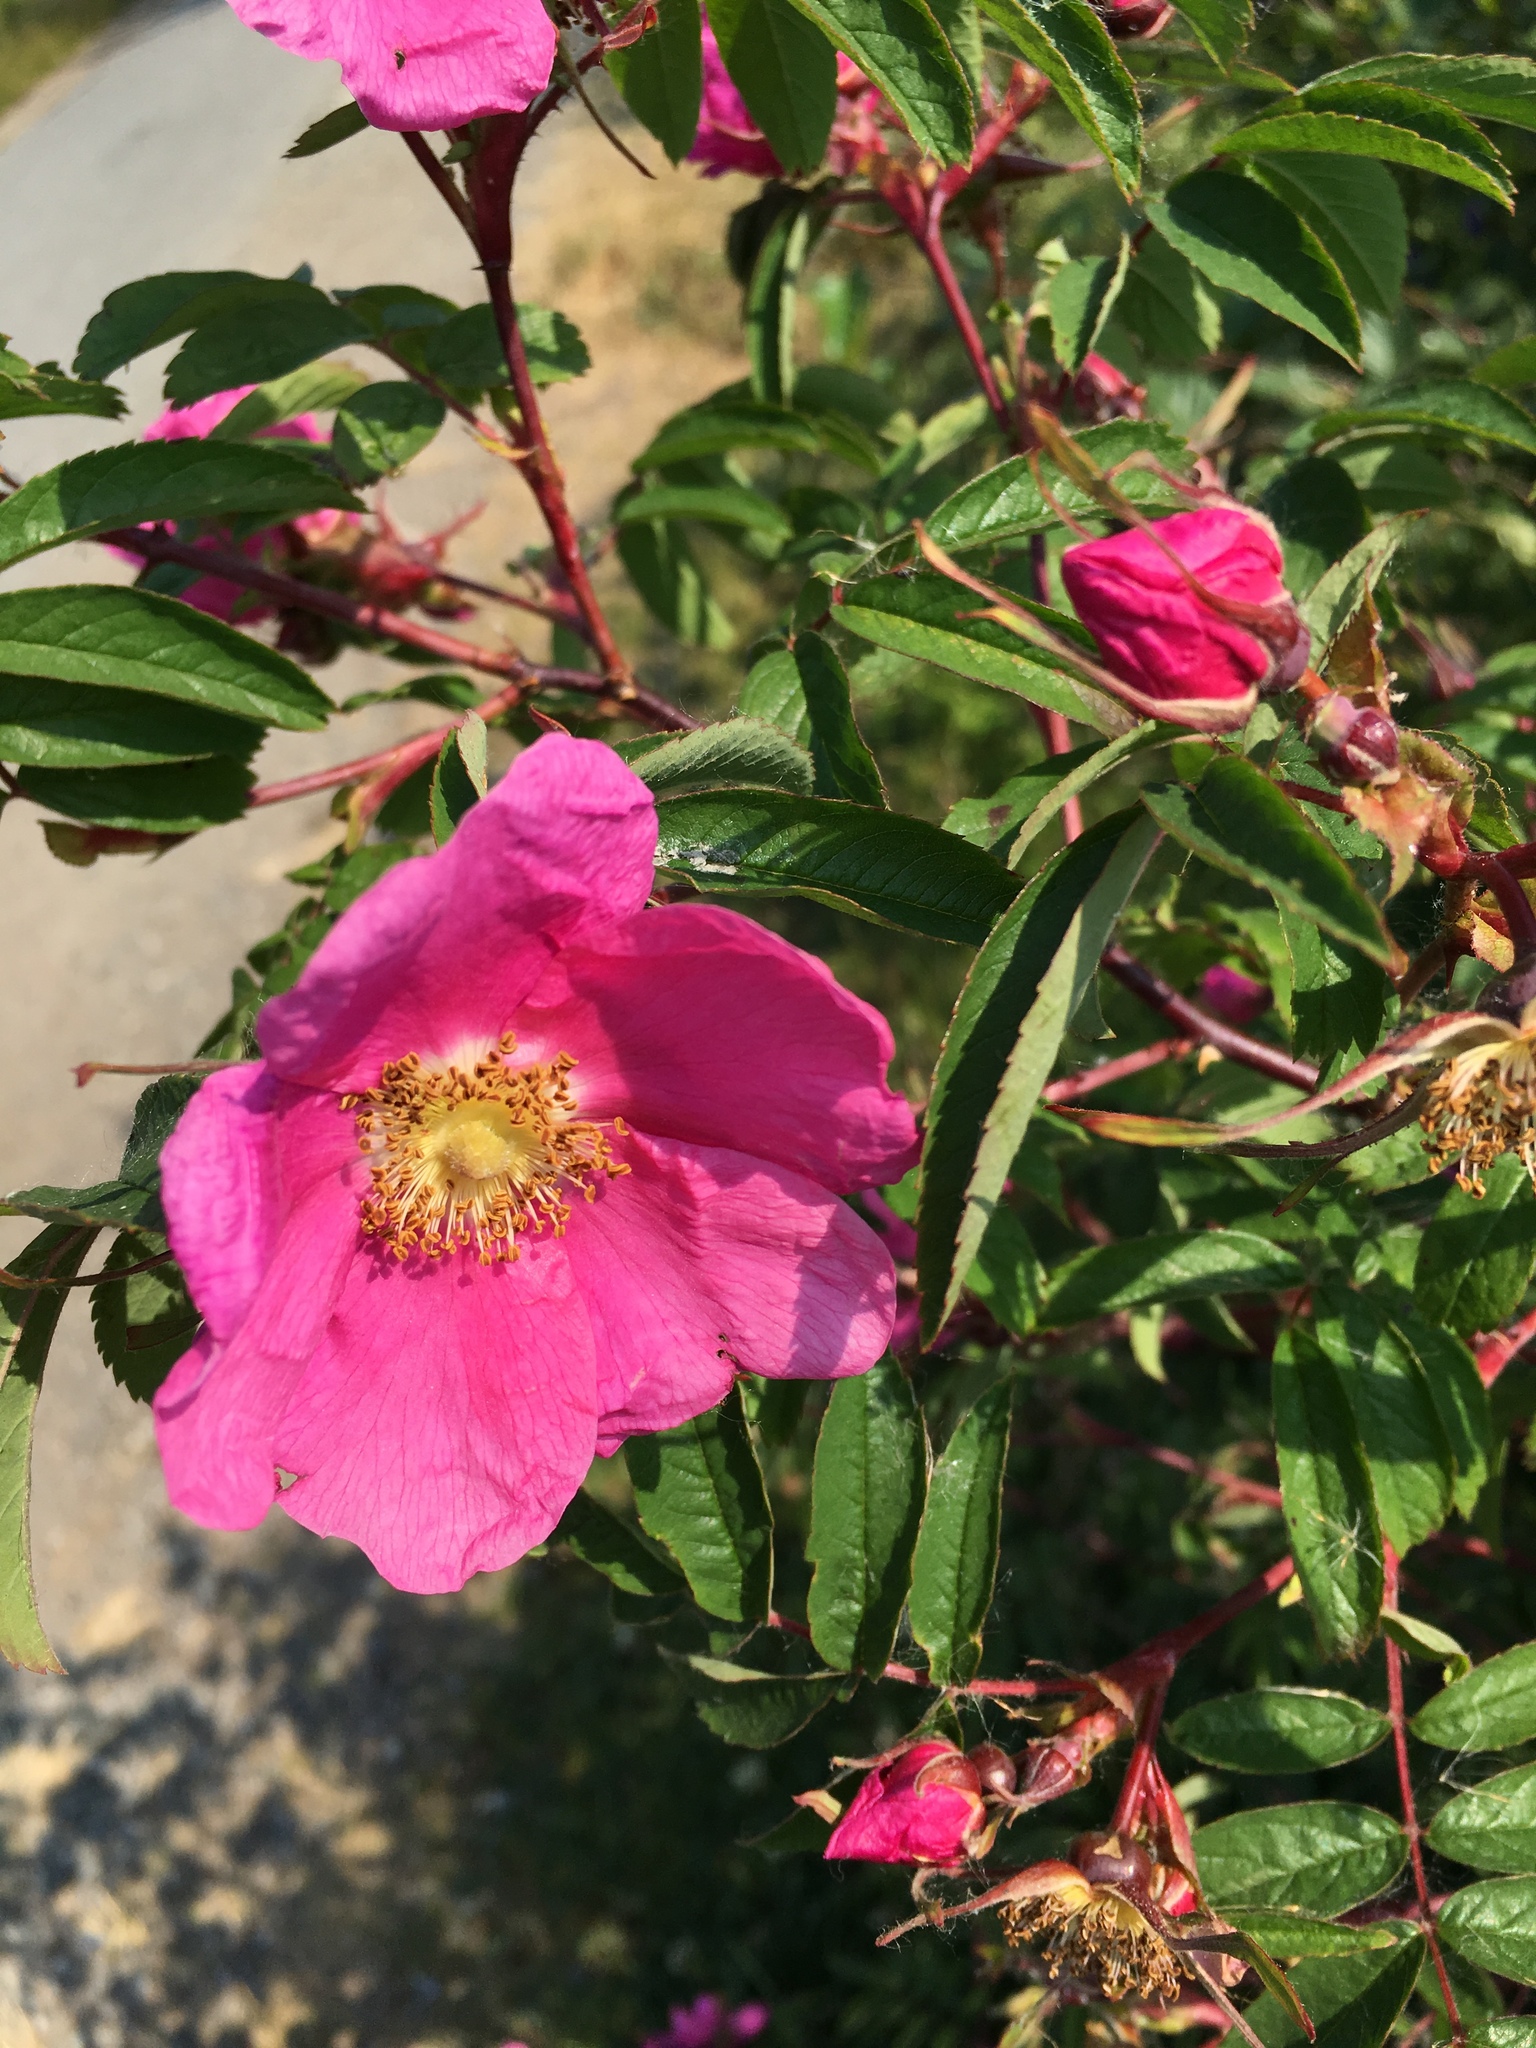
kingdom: Plantae
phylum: Tracheophyta
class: Magnoliopsida
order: Rosales
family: Rosaceae
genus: Rosa
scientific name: Rosa rugosa
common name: Japanese rose
